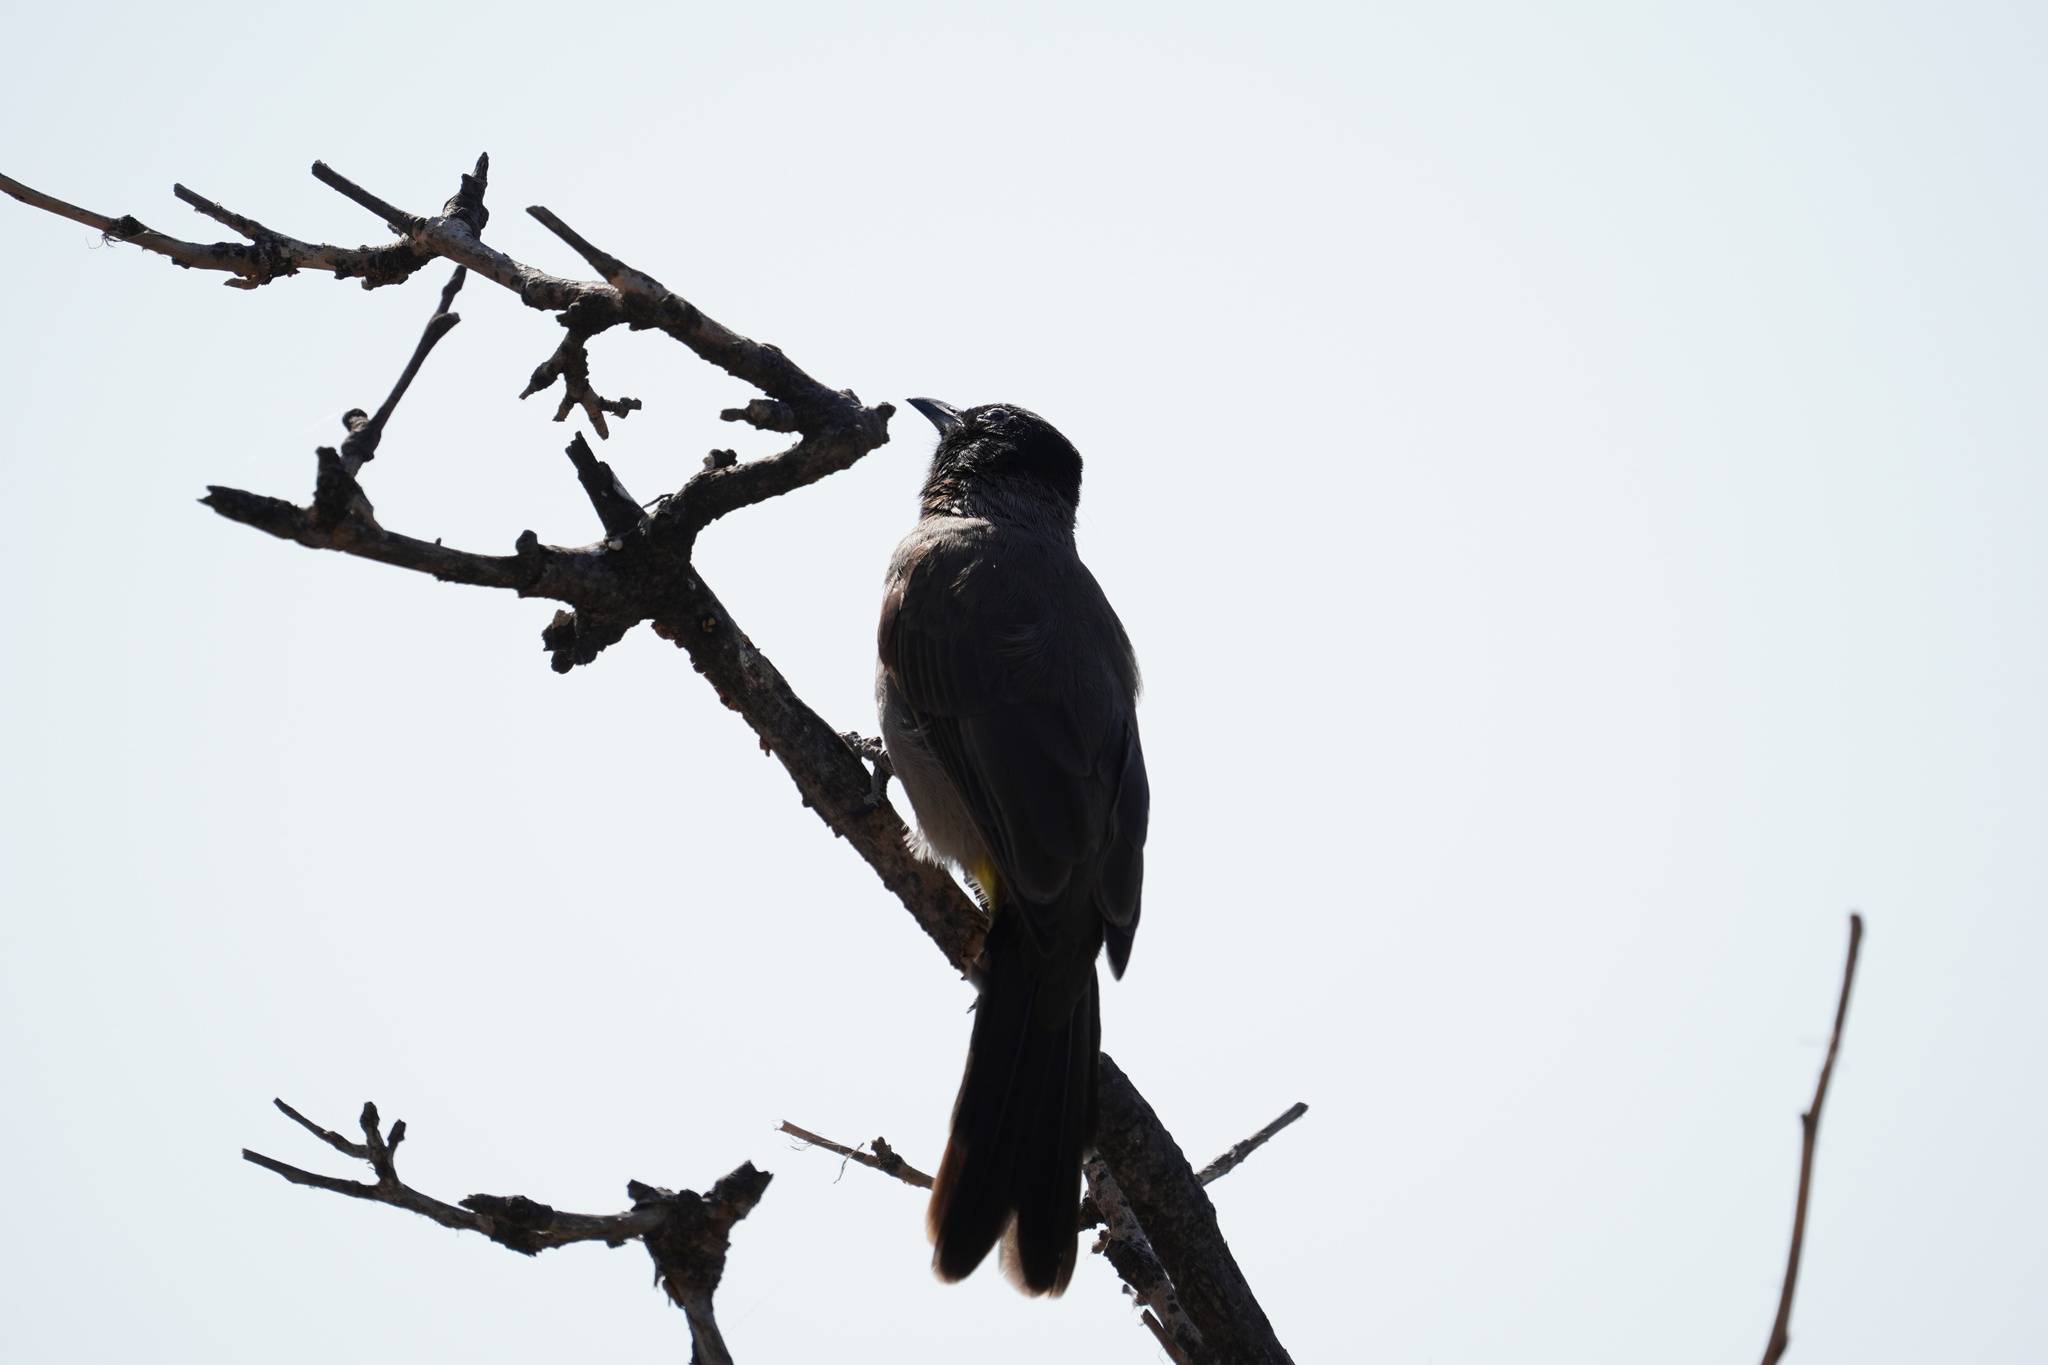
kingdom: Animalia
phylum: Chordata
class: Aves
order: Passeriformes
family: Pycnonotidae
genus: Pycnonotus
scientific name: Pycnonotus xanthopygos
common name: White-spectacled bulbul
